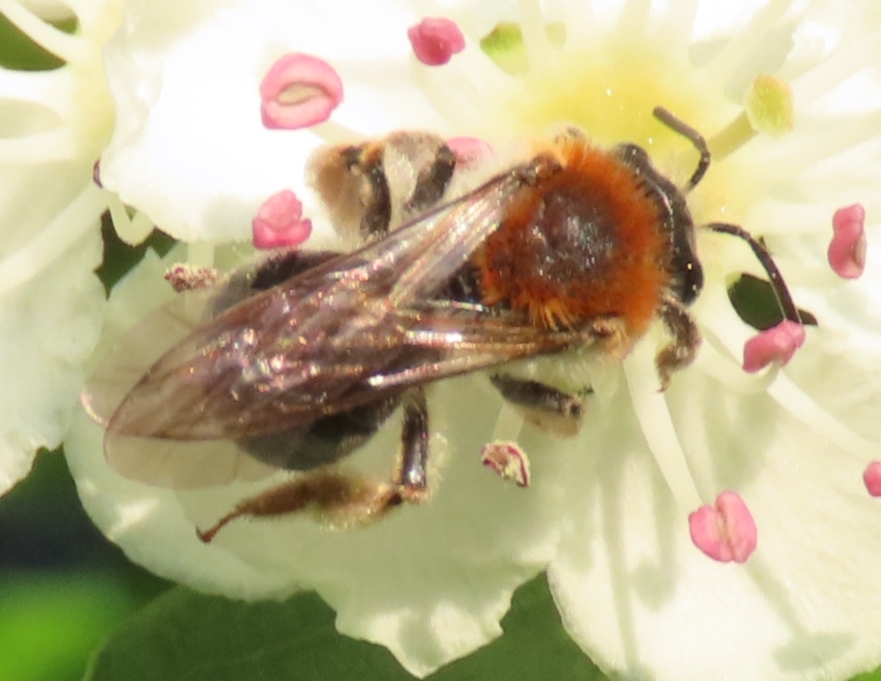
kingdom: Animalia
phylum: Arthropoda
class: Insecta
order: Hymenoptera
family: Andrenidae
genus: Andrena
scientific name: Andrena haemorrhoa
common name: Early mining bee
